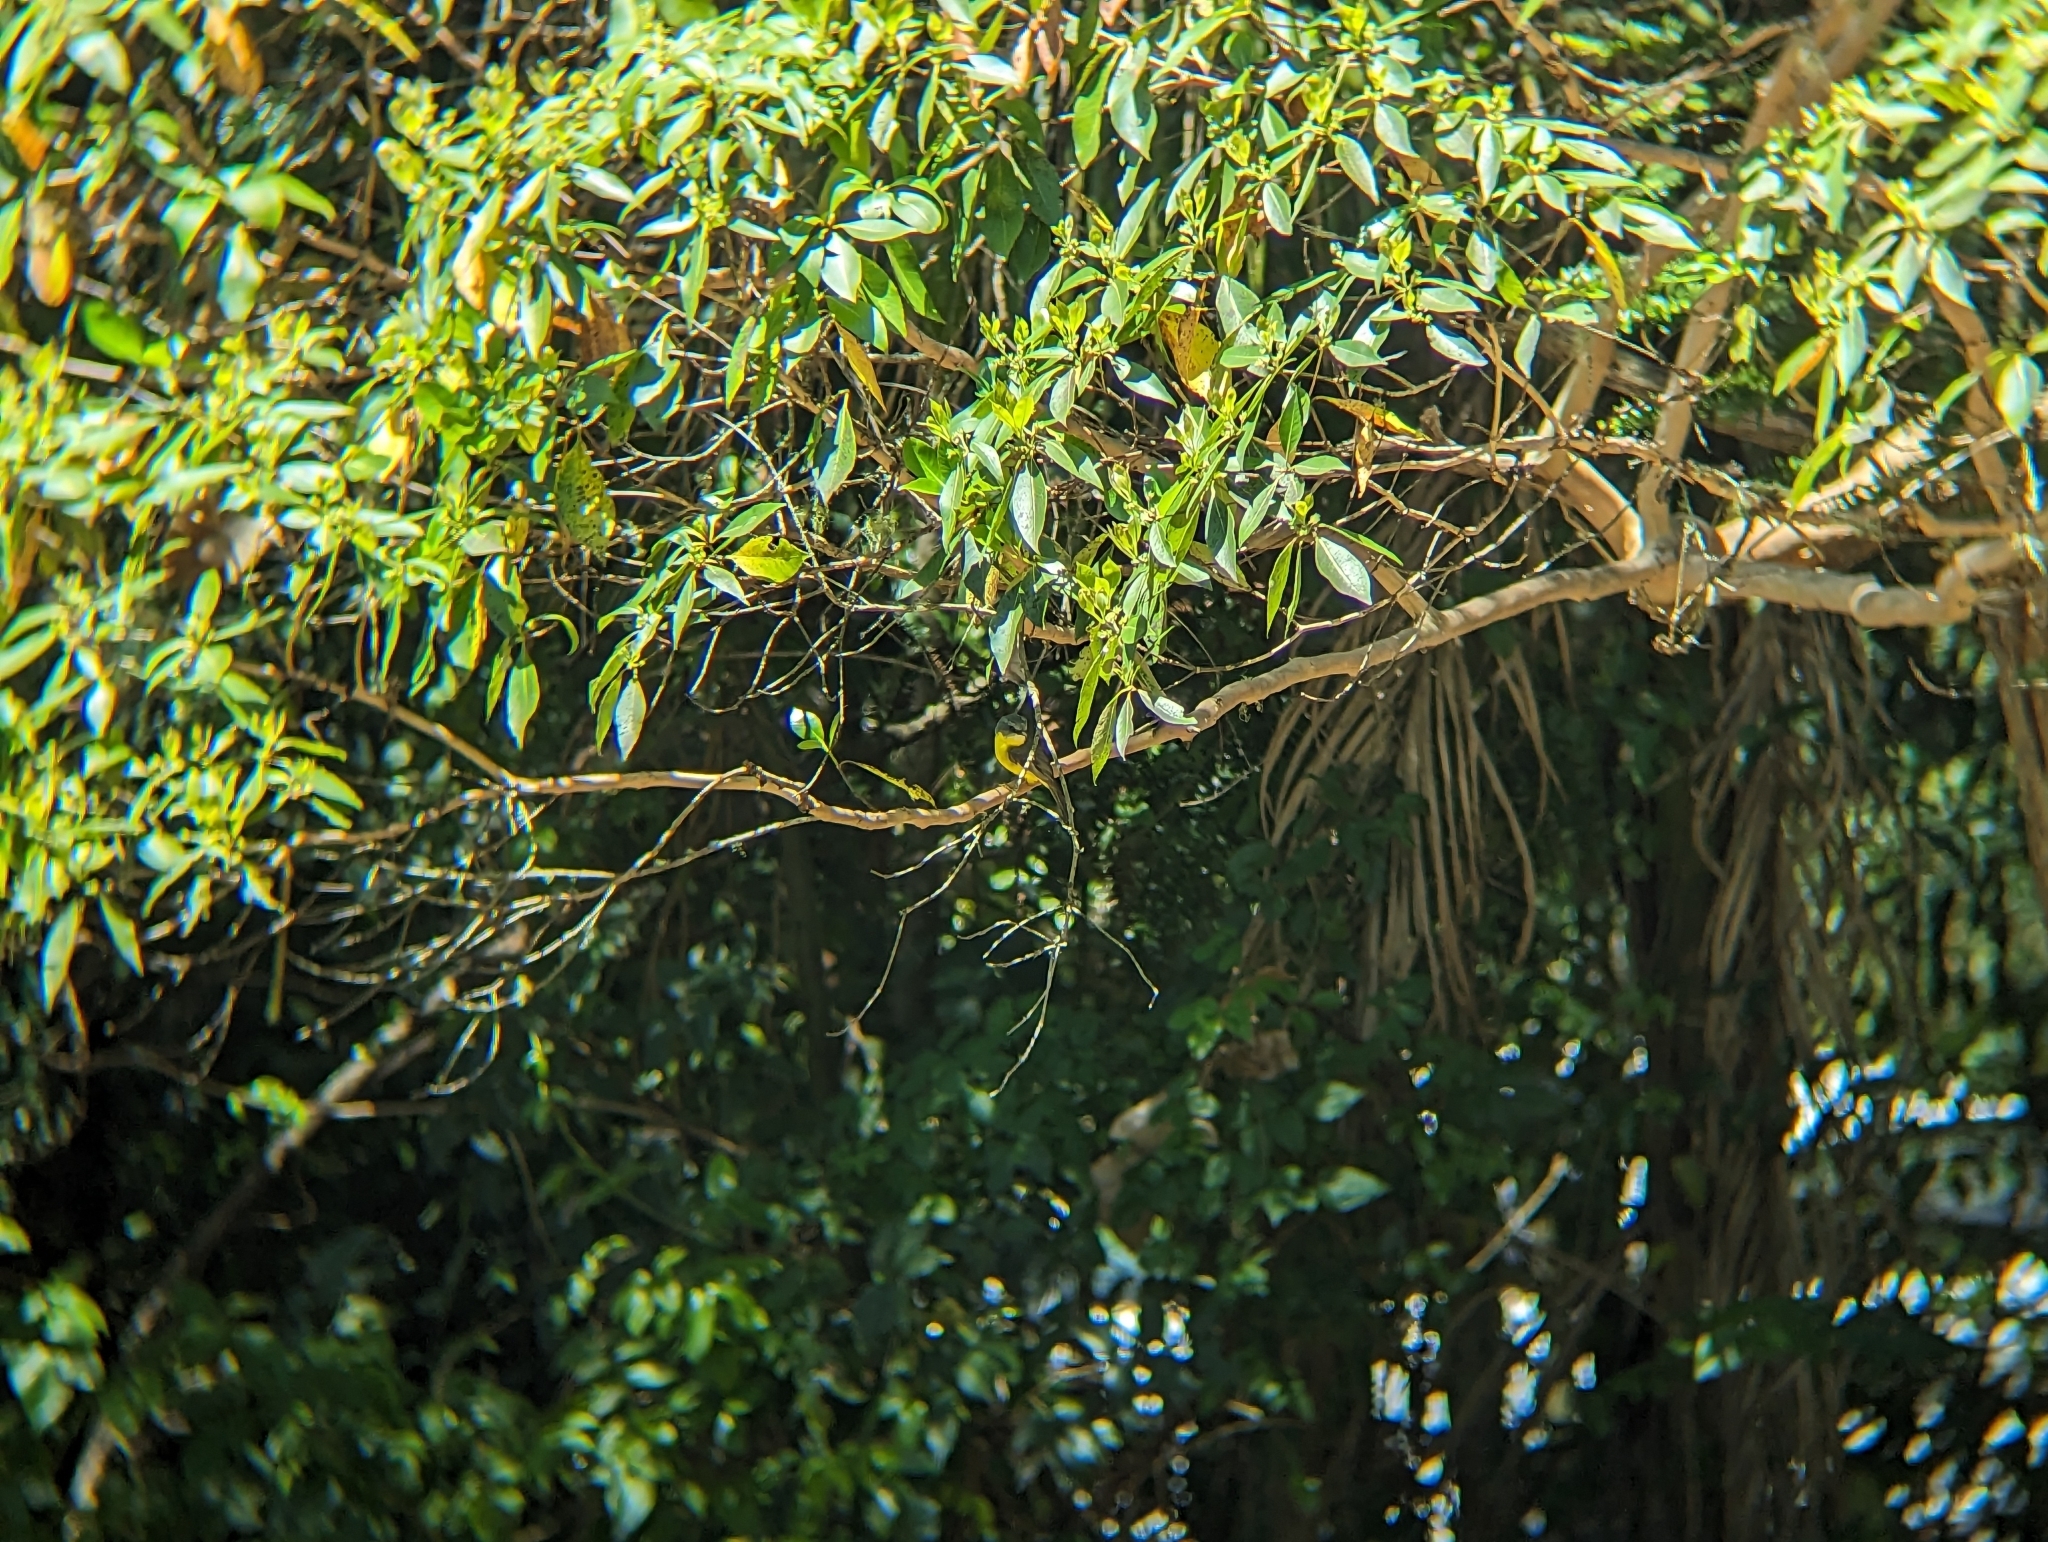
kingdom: Animalia
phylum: Chordata
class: Aves
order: Passeriformes
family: Petroicidae
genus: Eopsaltria
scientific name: Eopsaltria australis
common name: Eastern yellow robin
